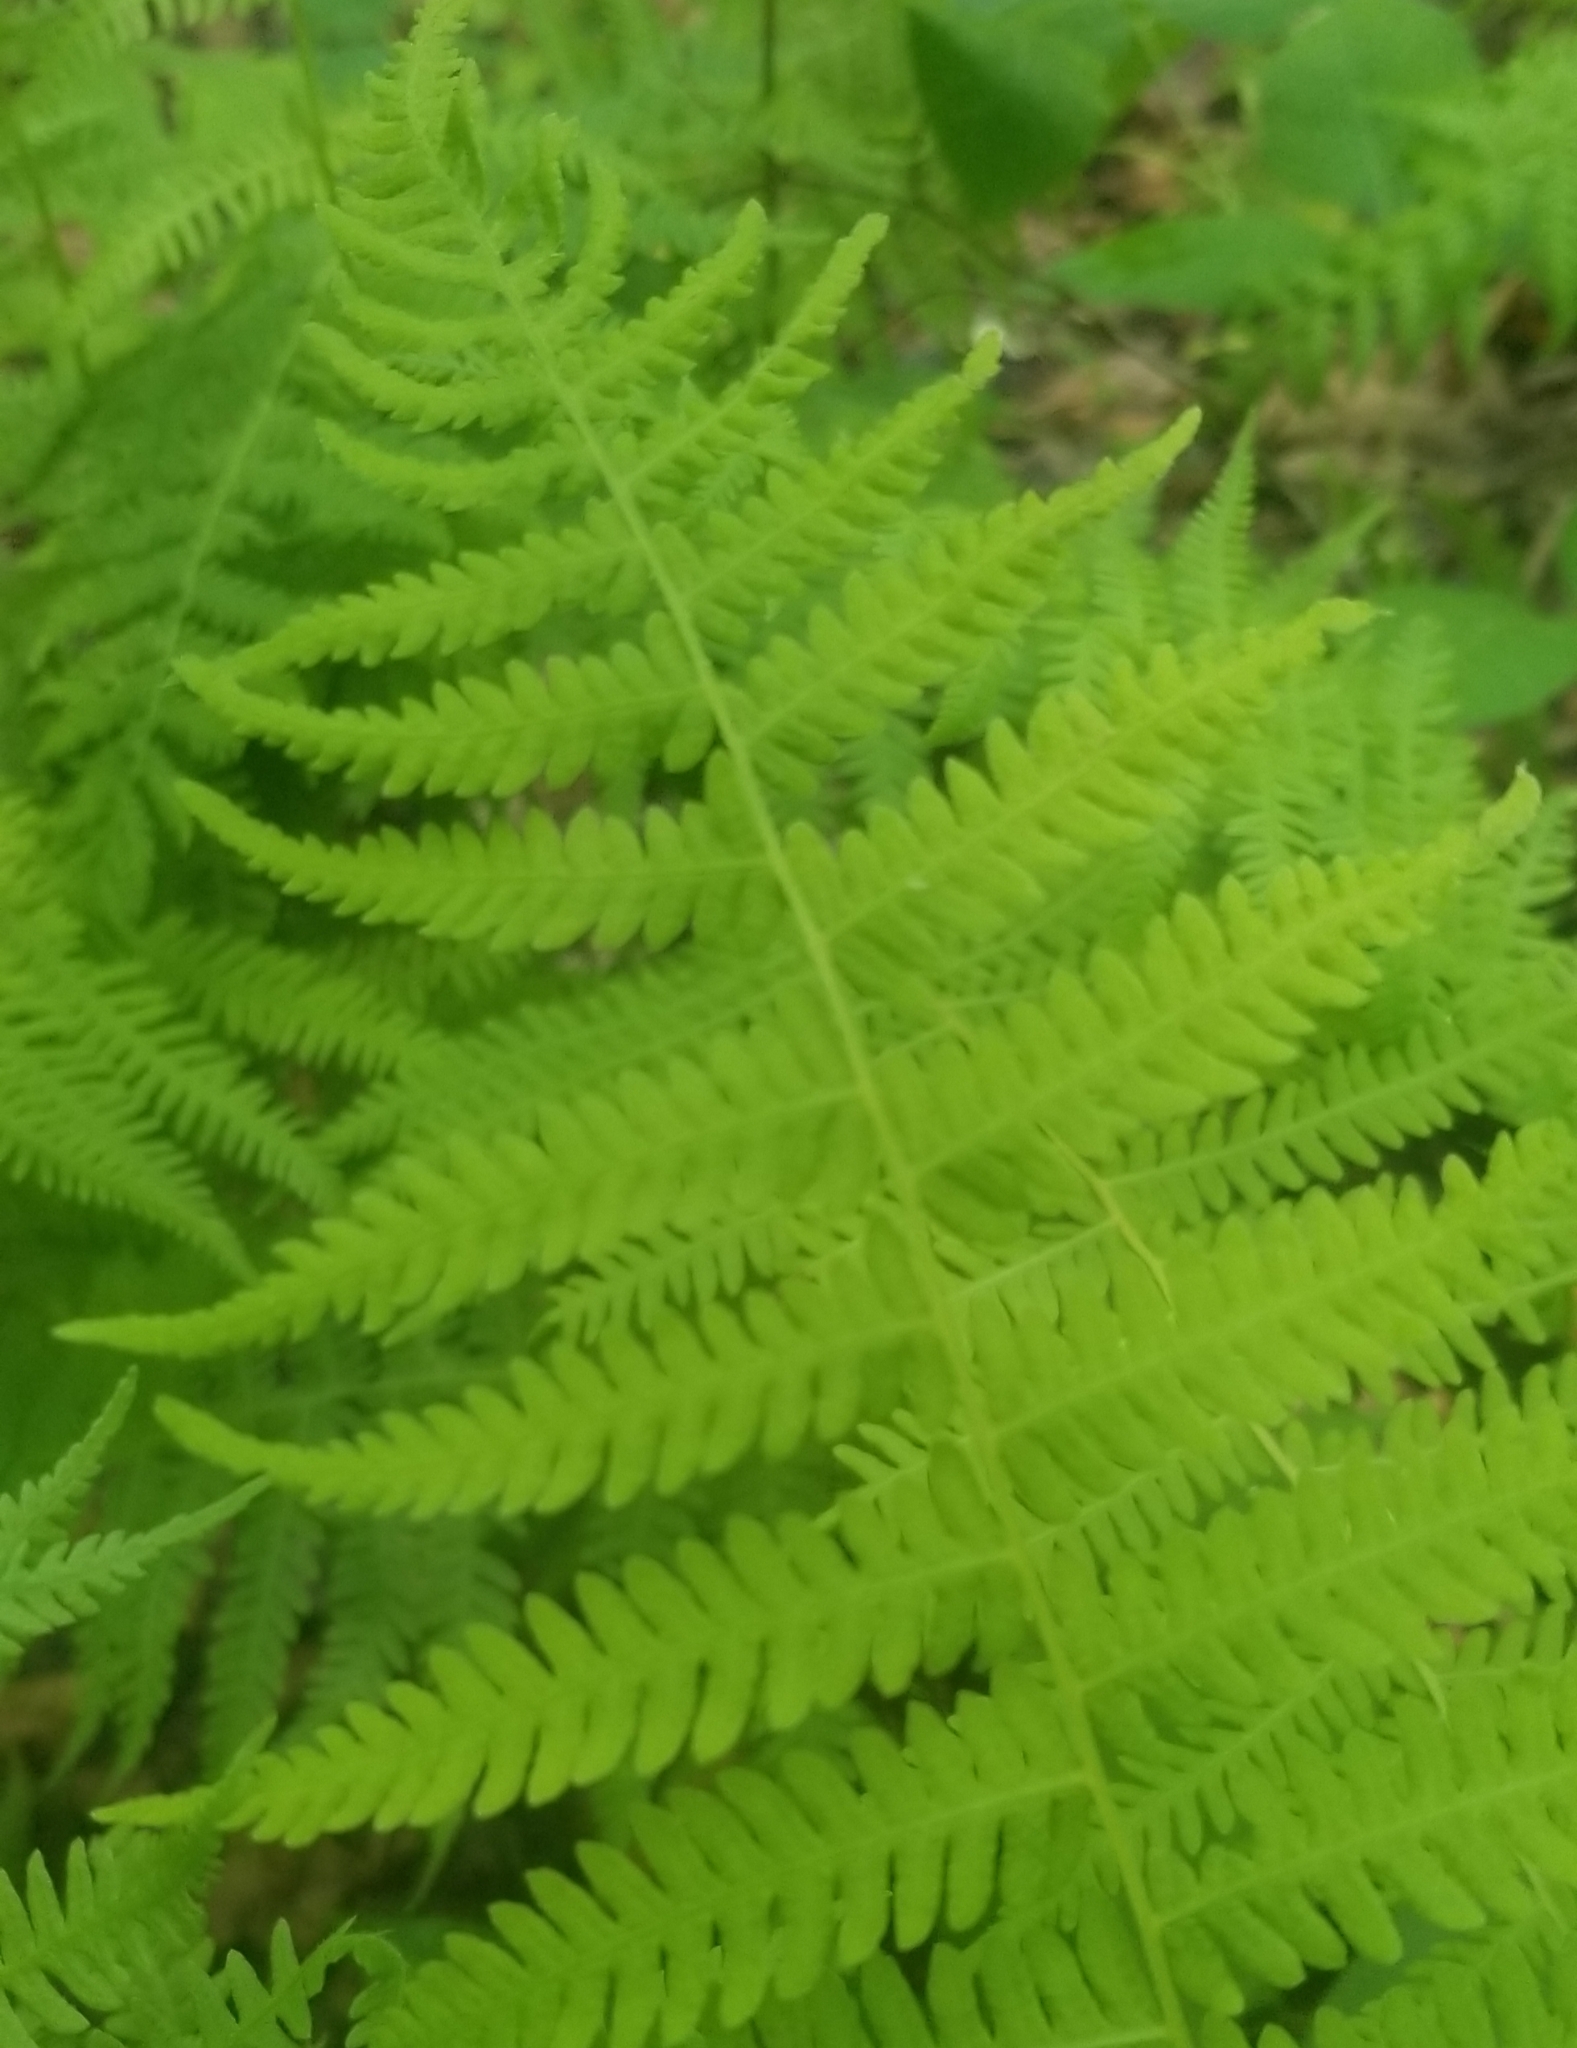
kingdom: Plantae
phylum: Tracheophyta
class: Polypodiopsida
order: Polypodiales
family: Thelypteridaceae
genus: Amauropelta
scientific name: Amauropelta noveboracensis
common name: New york fern
